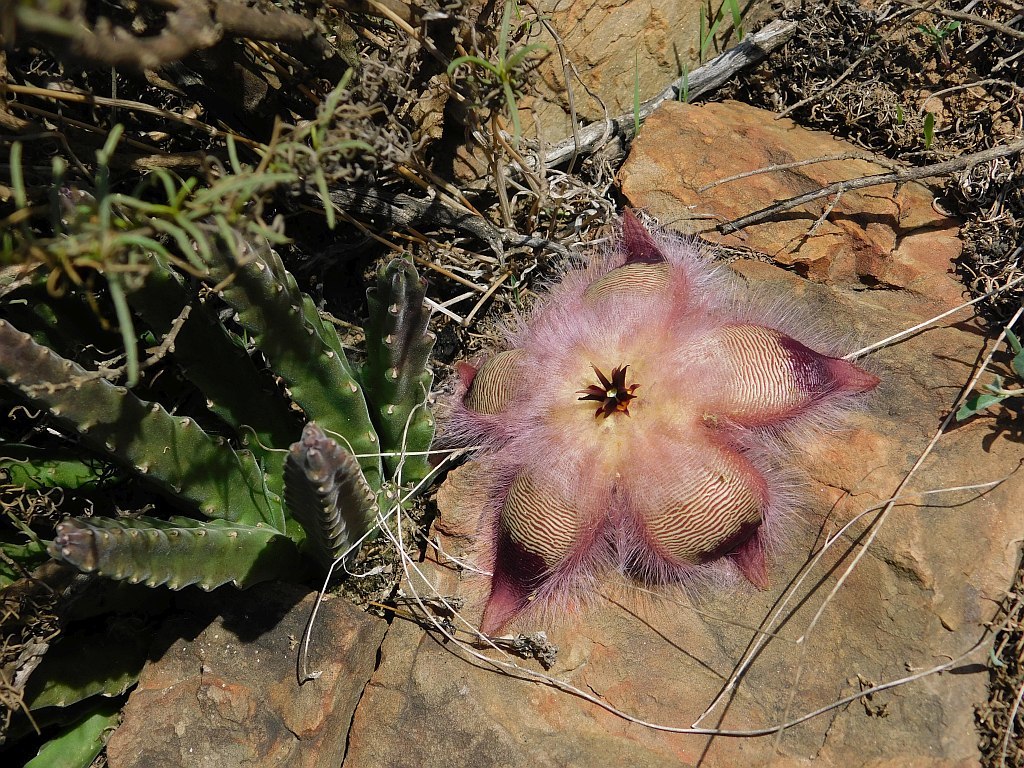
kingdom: Plantae
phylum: Tracheophyta
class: Magnoliopsida
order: Gentianales
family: Apocynaceae
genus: Ceropegia
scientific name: Ceropegia pulvinata
